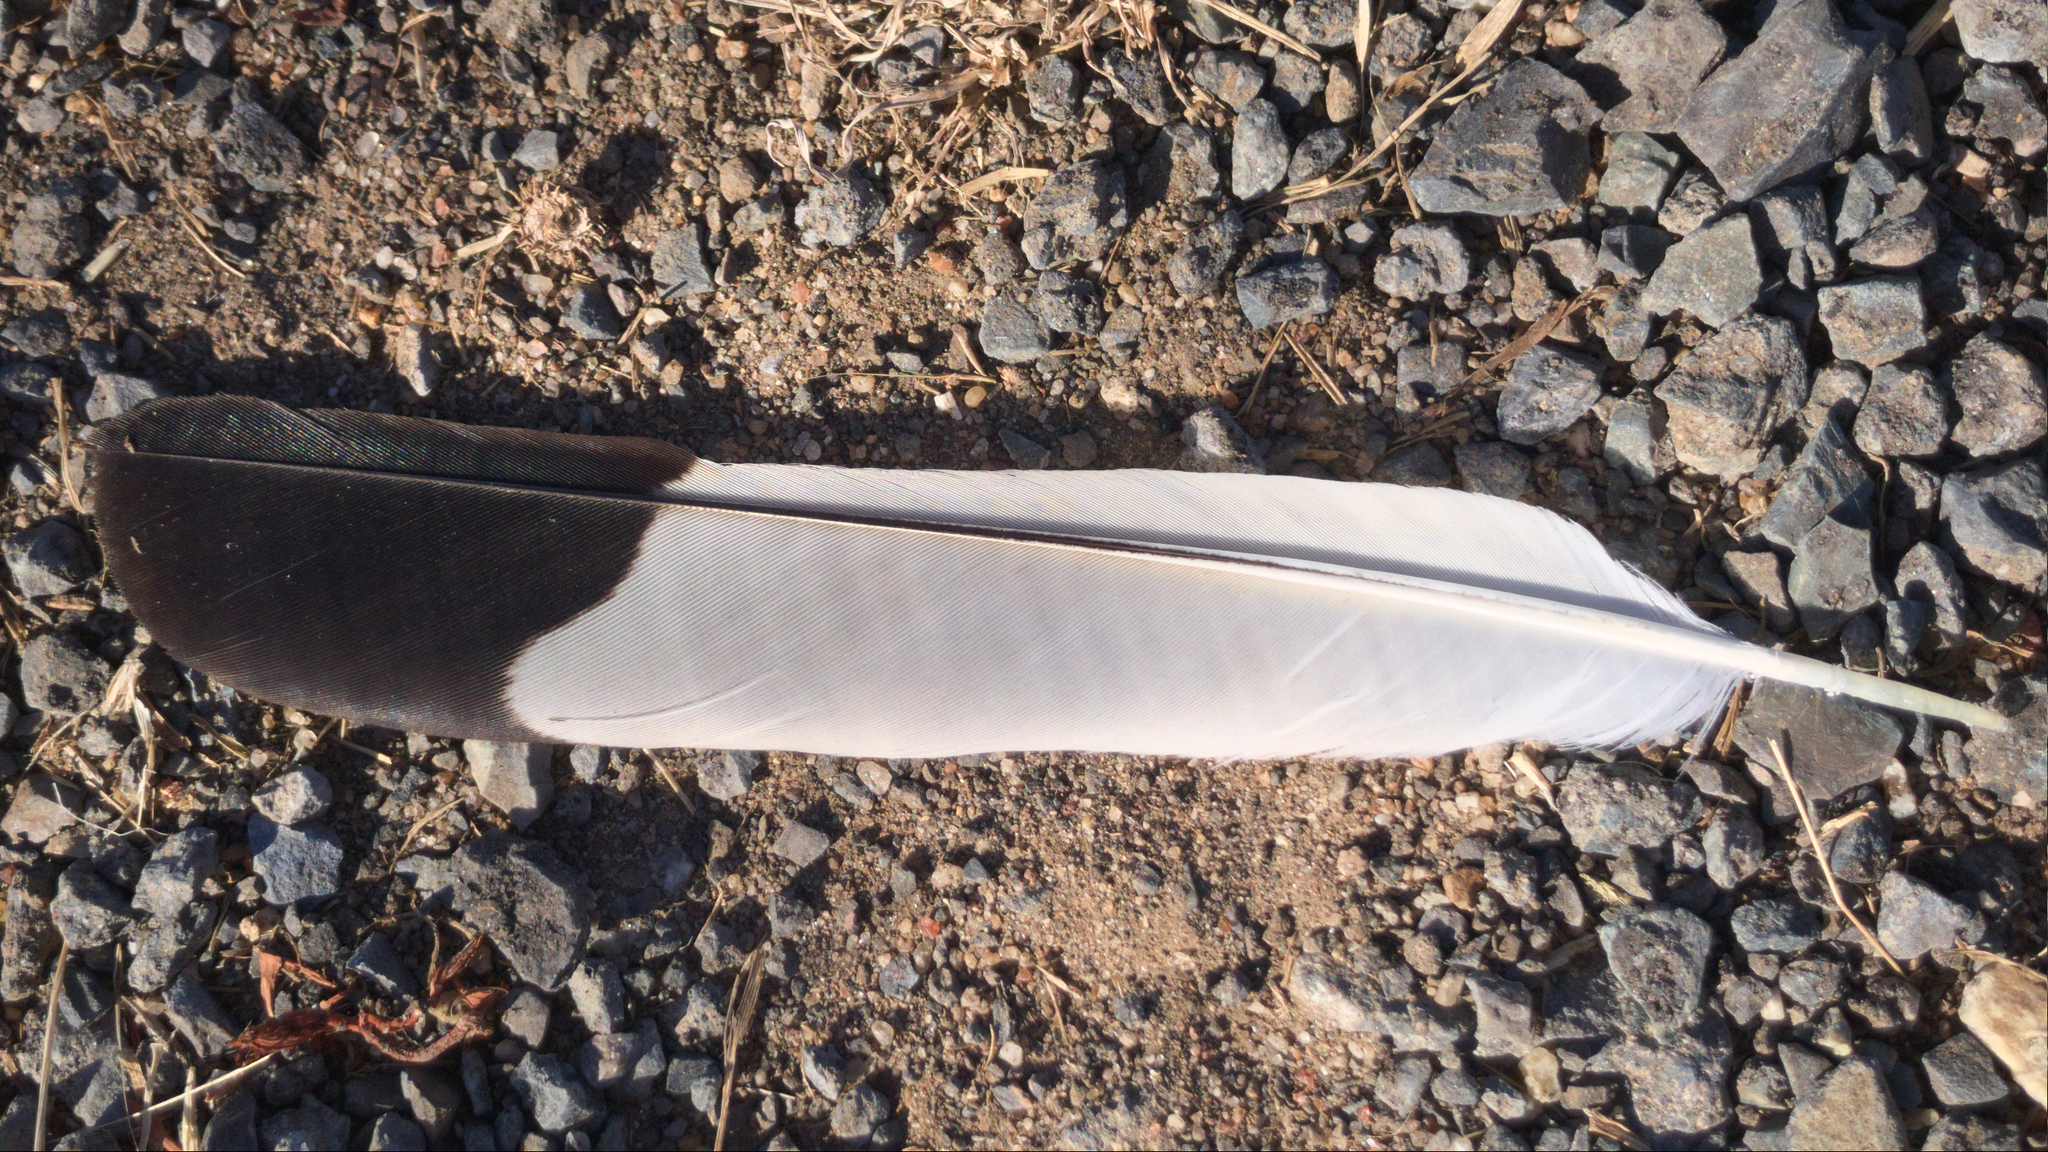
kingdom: Animalia
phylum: Chordata
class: Aves
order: Passeriformes
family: Cracticidae
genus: Gymnorhina
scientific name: Gymnorhina tibicen
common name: Australian magpie
